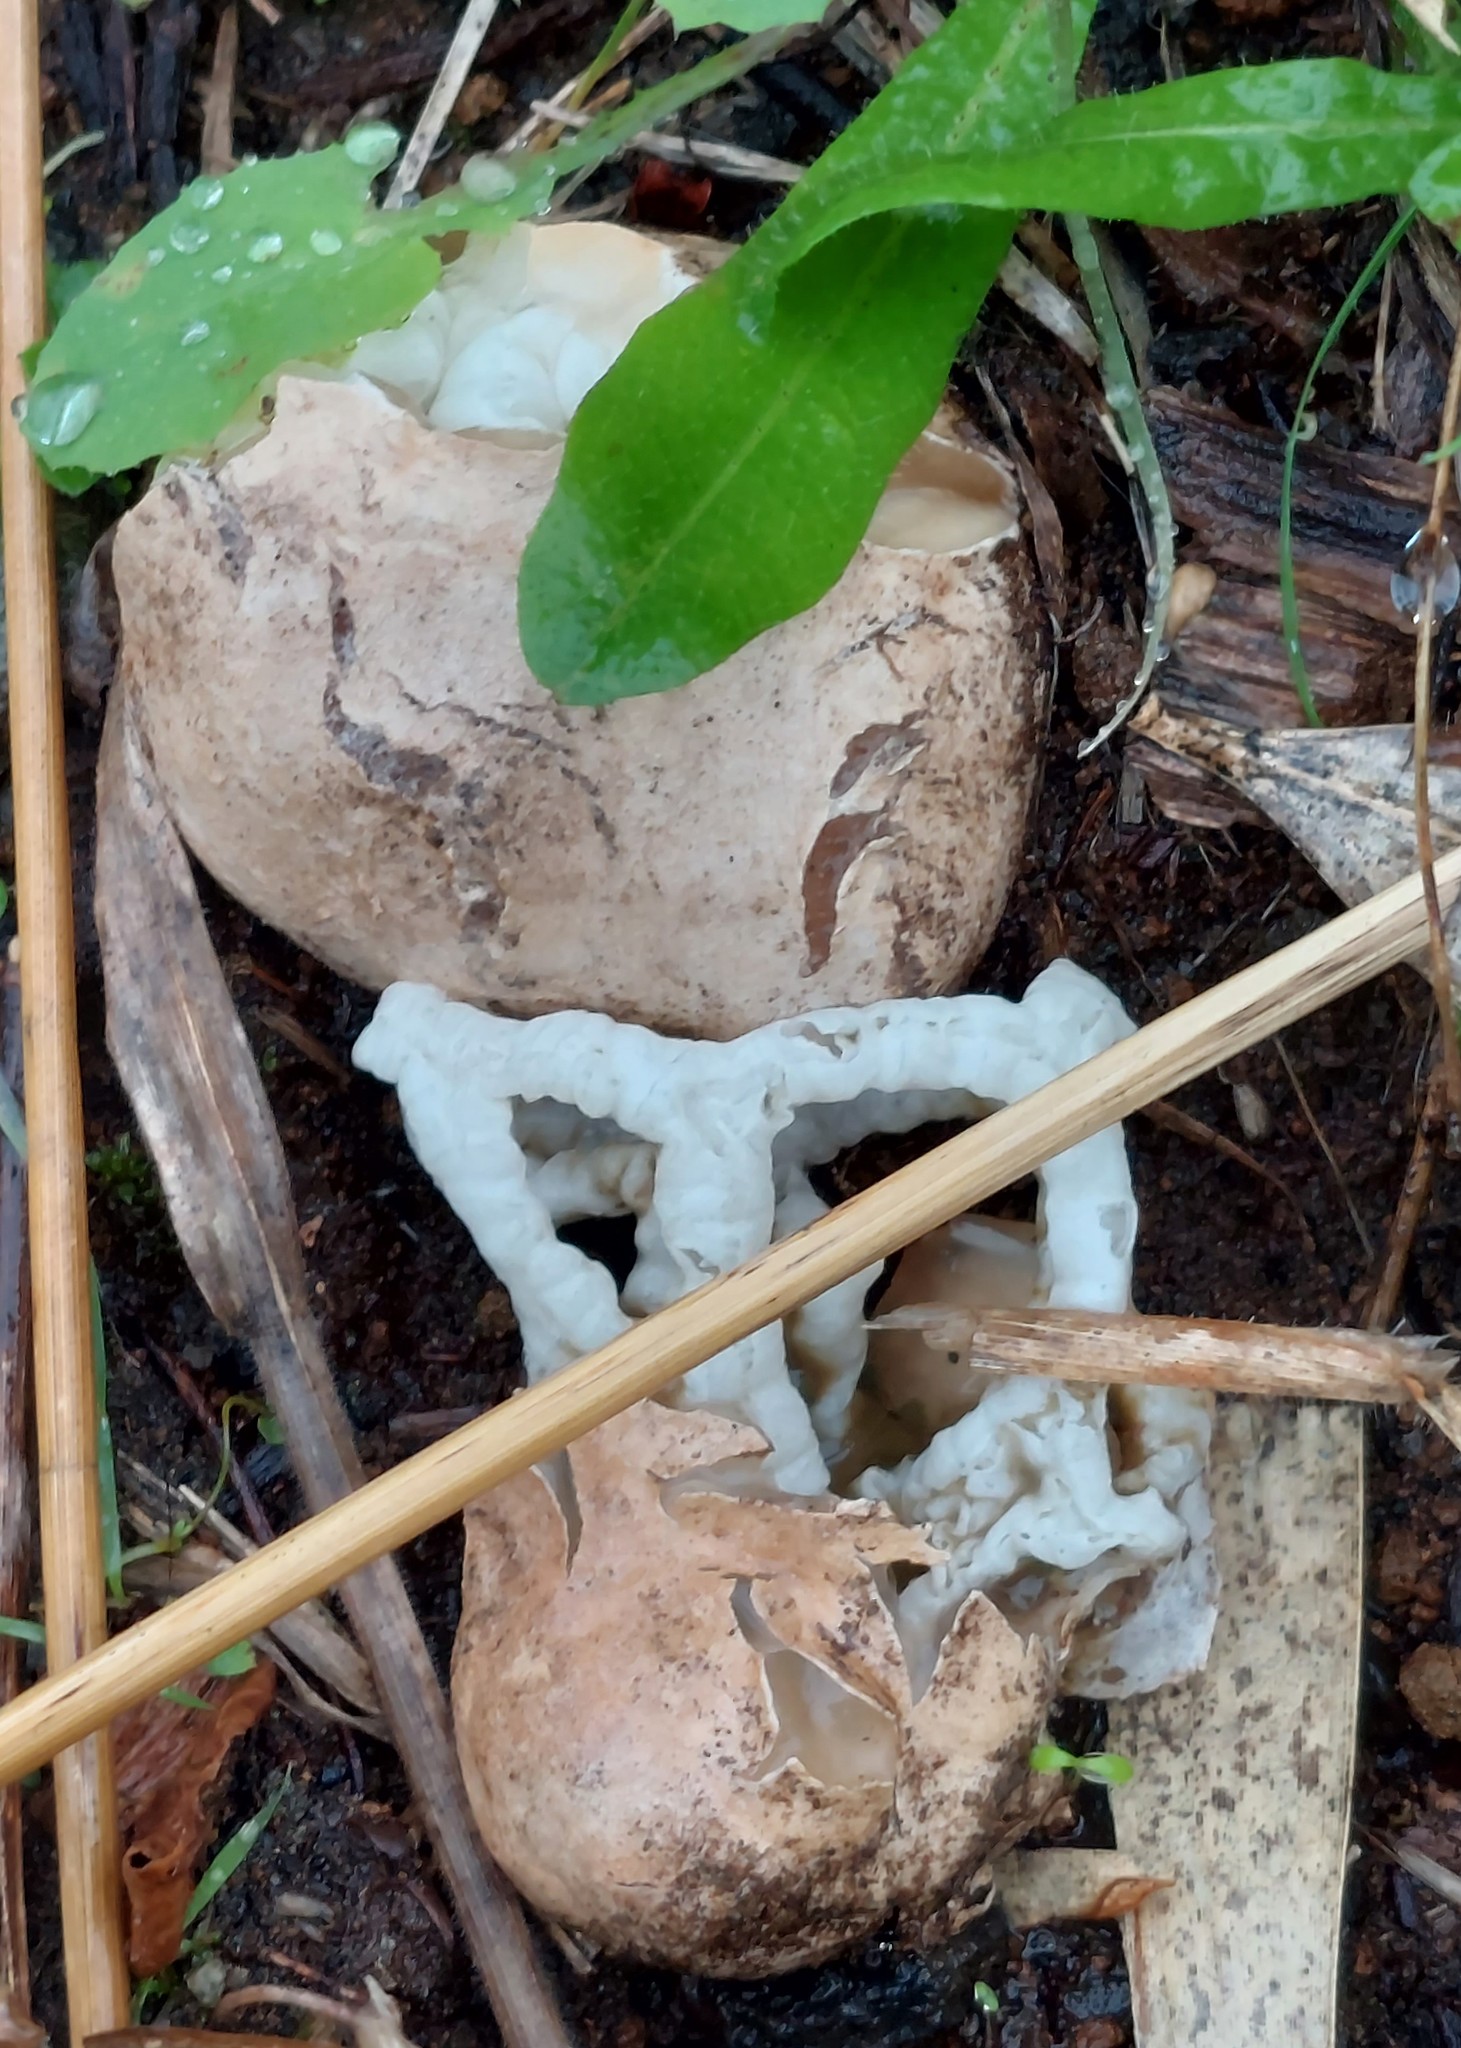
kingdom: Fungi
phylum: Basidiomycota
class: Agaricomycetes
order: Phallales
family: Phallaceae
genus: Ileodictyon
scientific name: Ileodictyon cibarium
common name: Basket fungus
